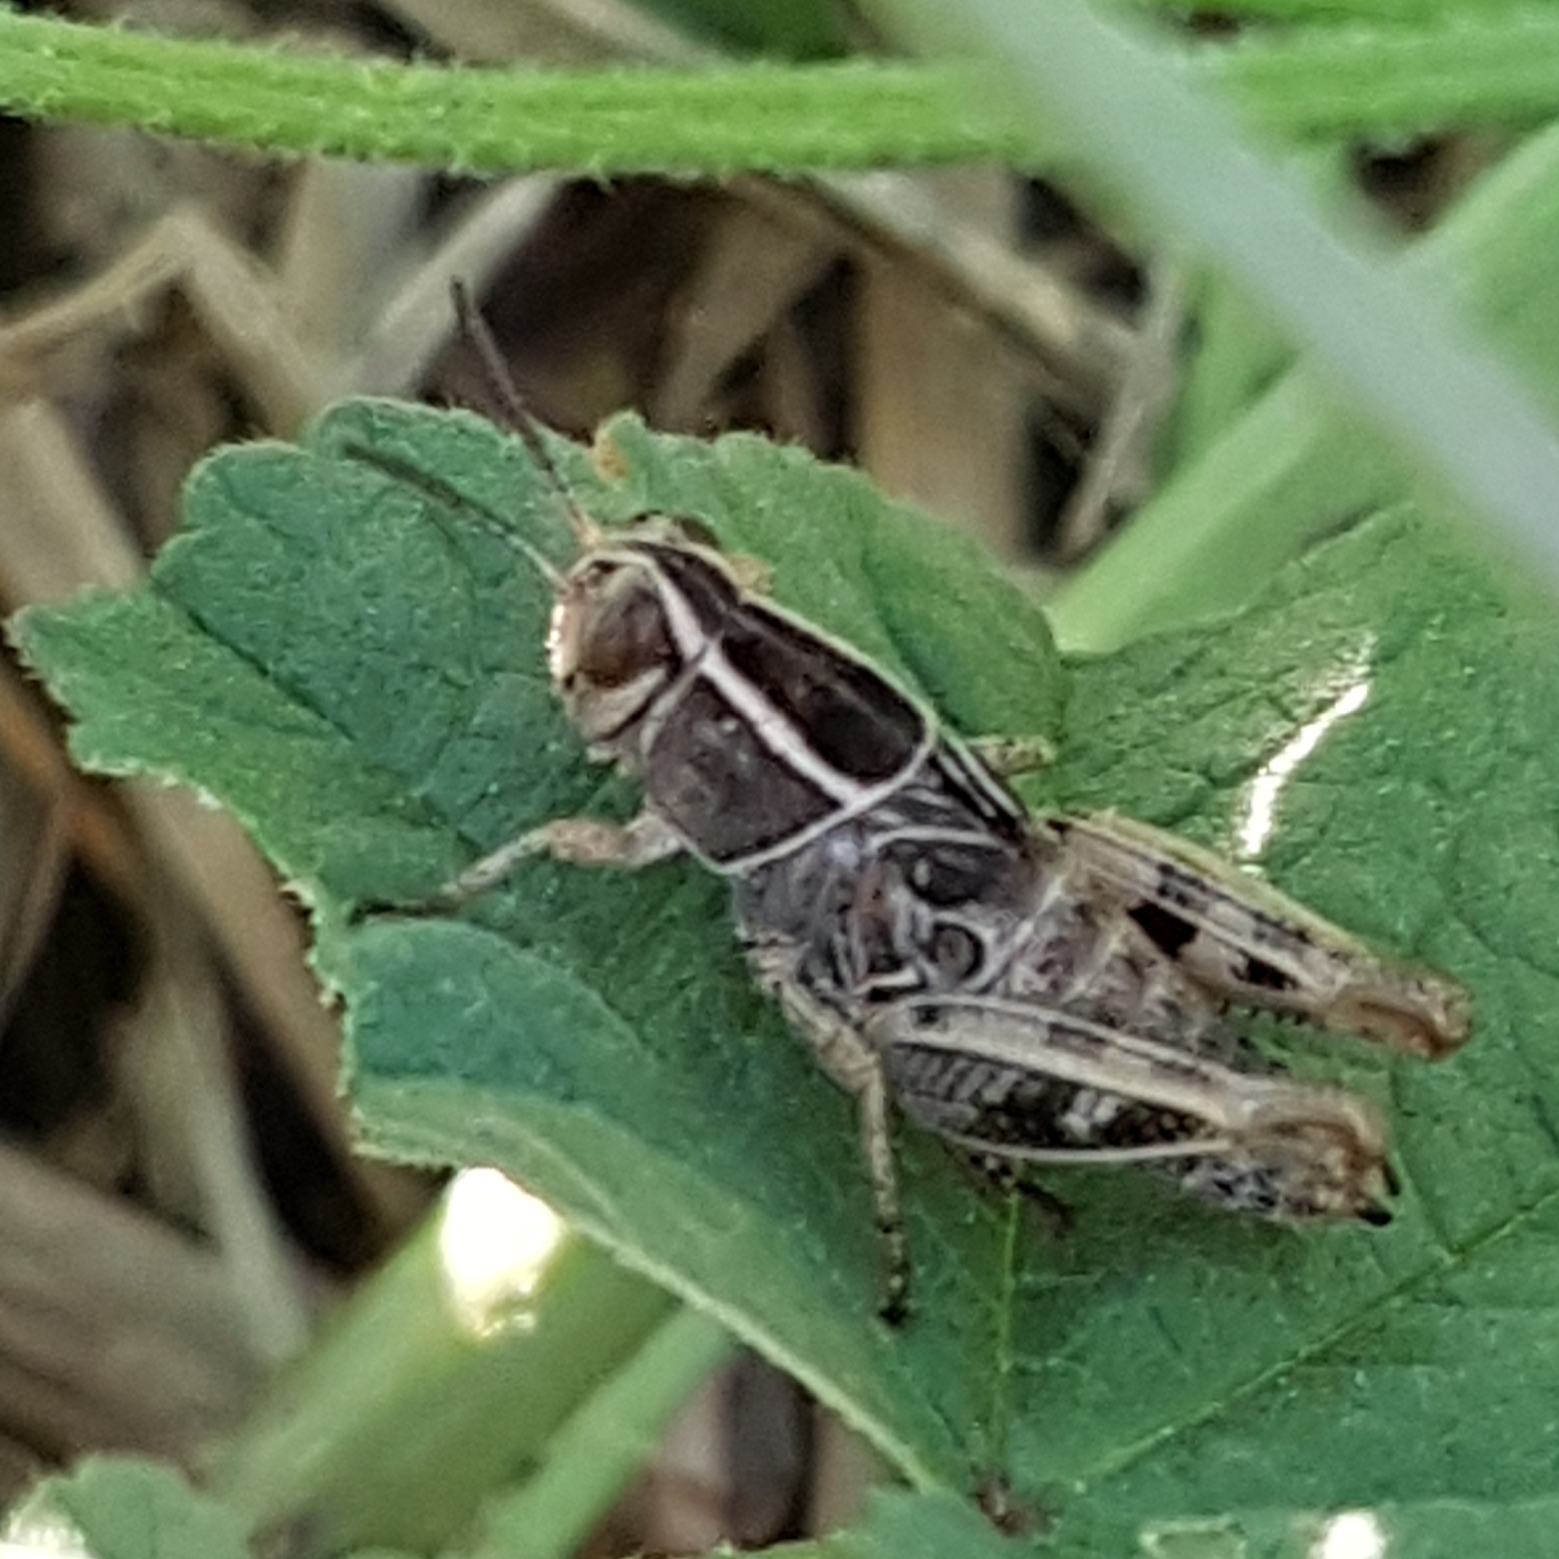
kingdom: Animalia
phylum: Arthropoda
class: Insecta
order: Orthoptera
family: Acrididae
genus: Calliptamus
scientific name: Calliptamus
